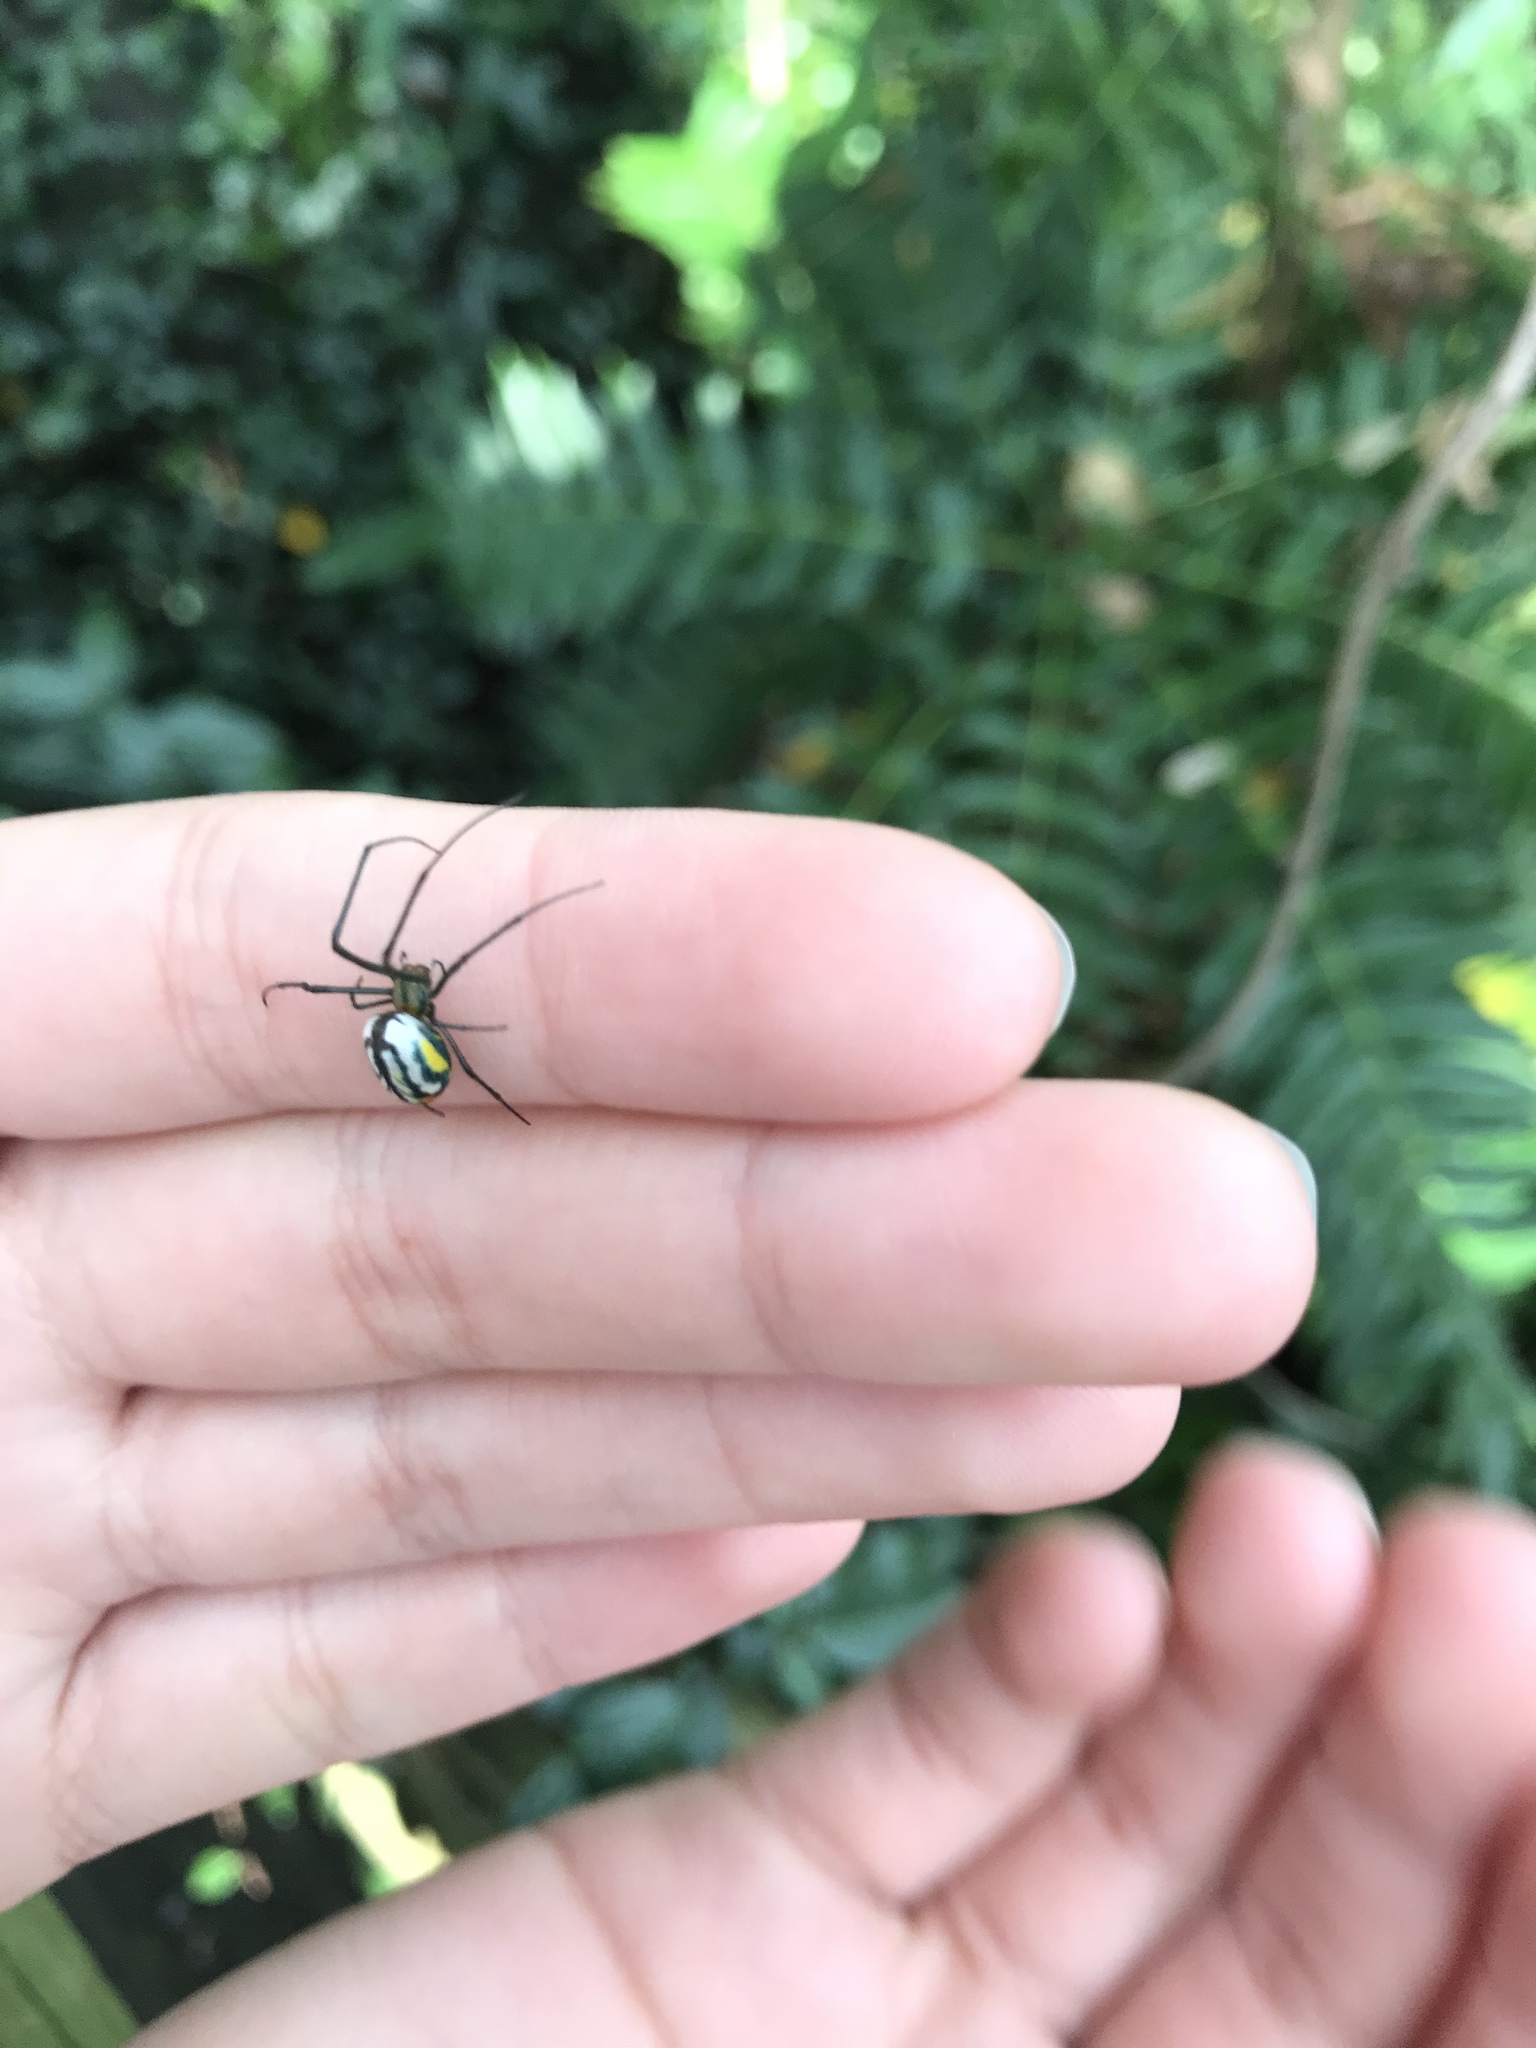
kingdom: Animalia
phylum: Arthropoda
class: Arachnida
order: Araneae
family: Tetragnathidae
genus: Leucauge
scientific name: Leucauge
